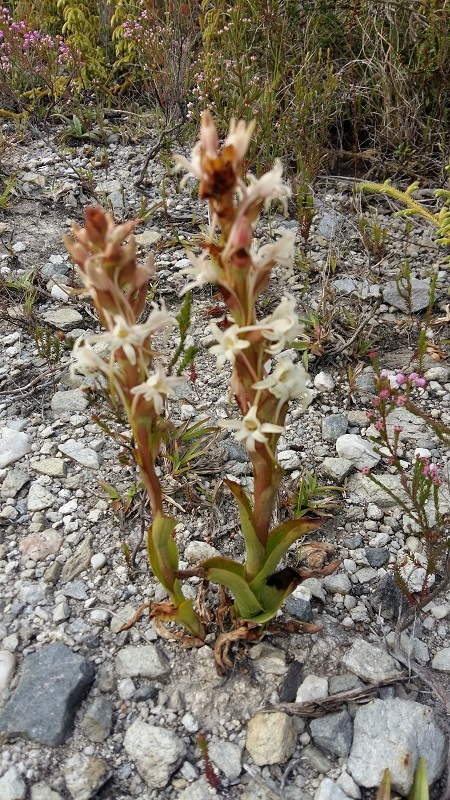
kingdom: Plantae
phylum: Tracheophyta
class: Liliopsida
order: Asparagales
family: Orchidaceae
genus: Satyrium
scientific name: Satyrium stenopetalum
